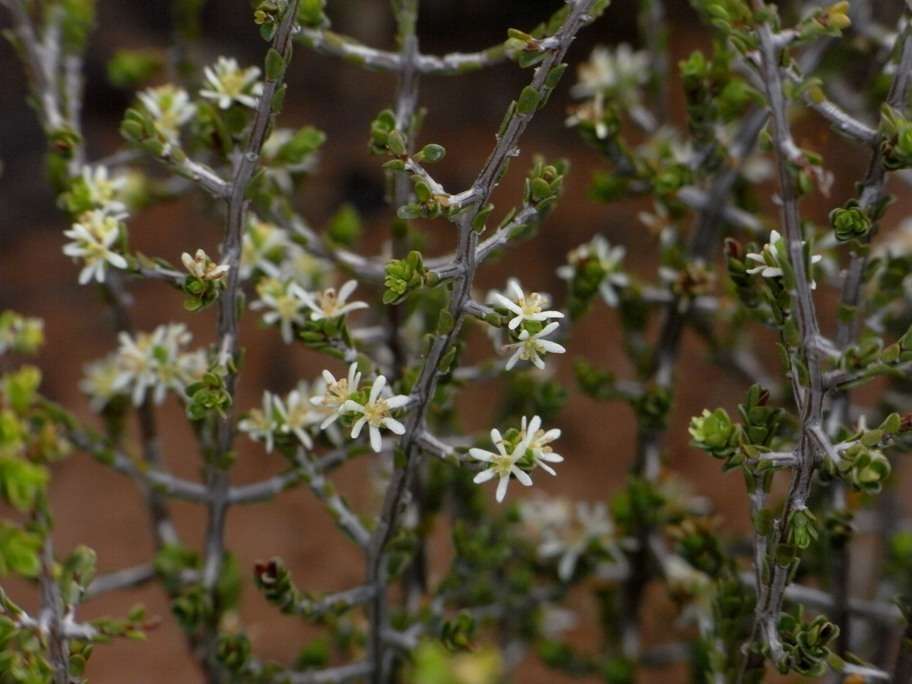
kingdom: Plantae
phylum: Tracheophyta
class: Magnoliopsida
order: Malpighiales
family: Picrodendraceae
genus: Pseudanthus
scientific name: Pseudanthus ovalifolius
